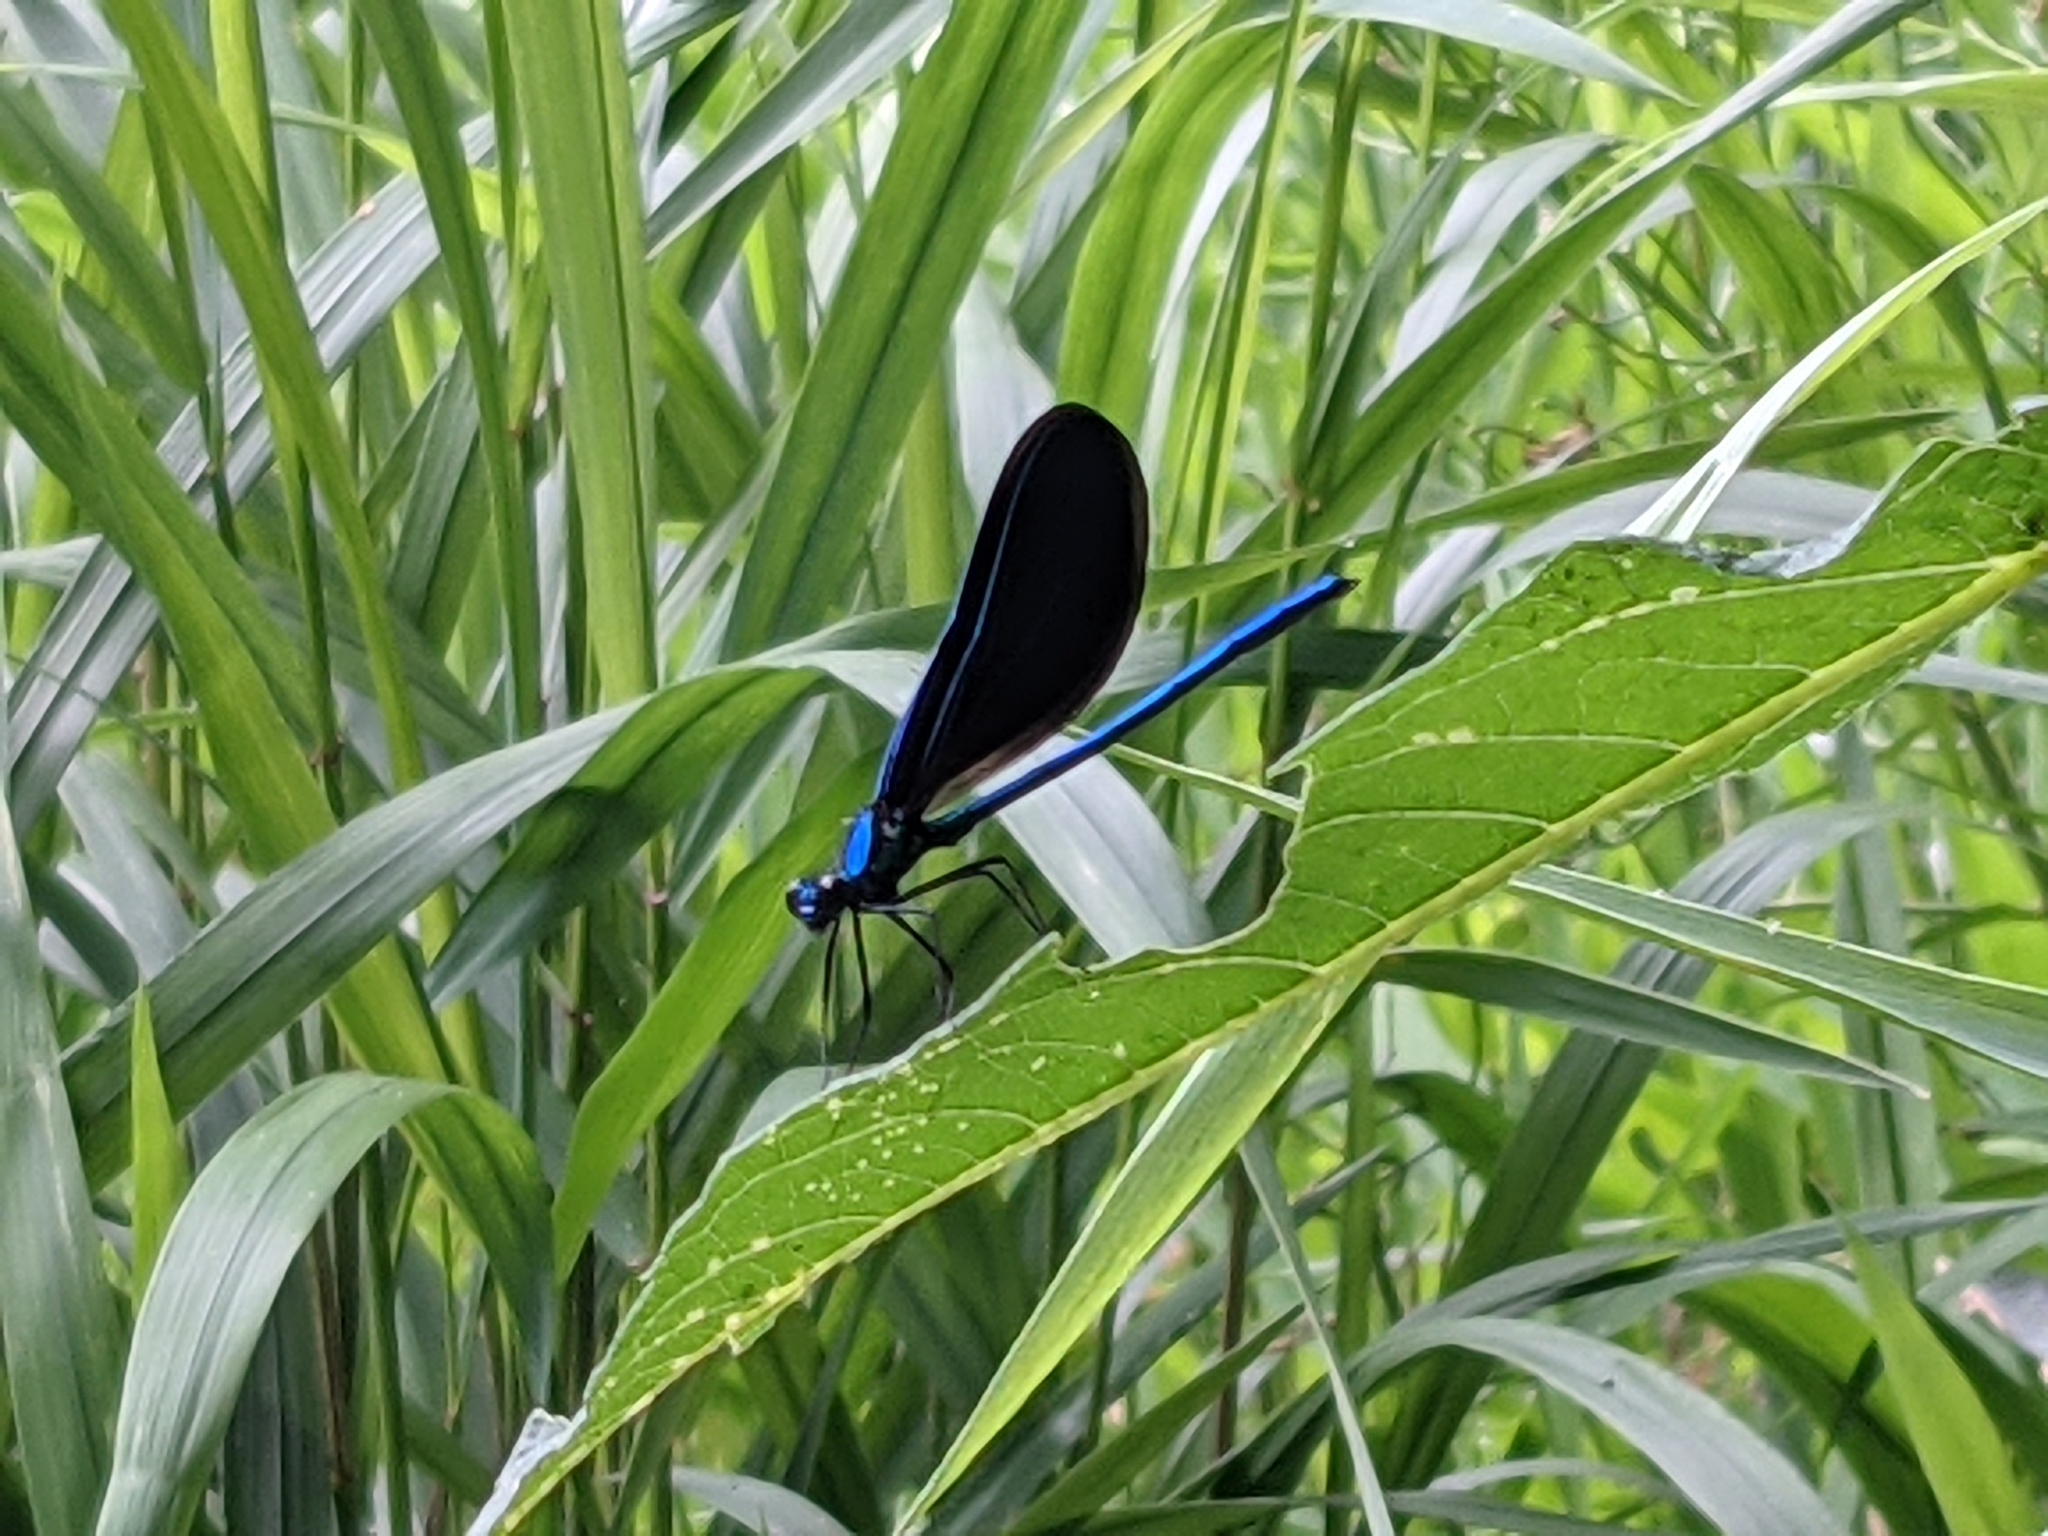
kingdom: Animalia
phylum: Arthropoda
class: Insecta
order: Odonata
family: Calopterygidae
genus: Calopteryx
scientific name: Calopteryx maculata
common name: Ebony jewelwing
